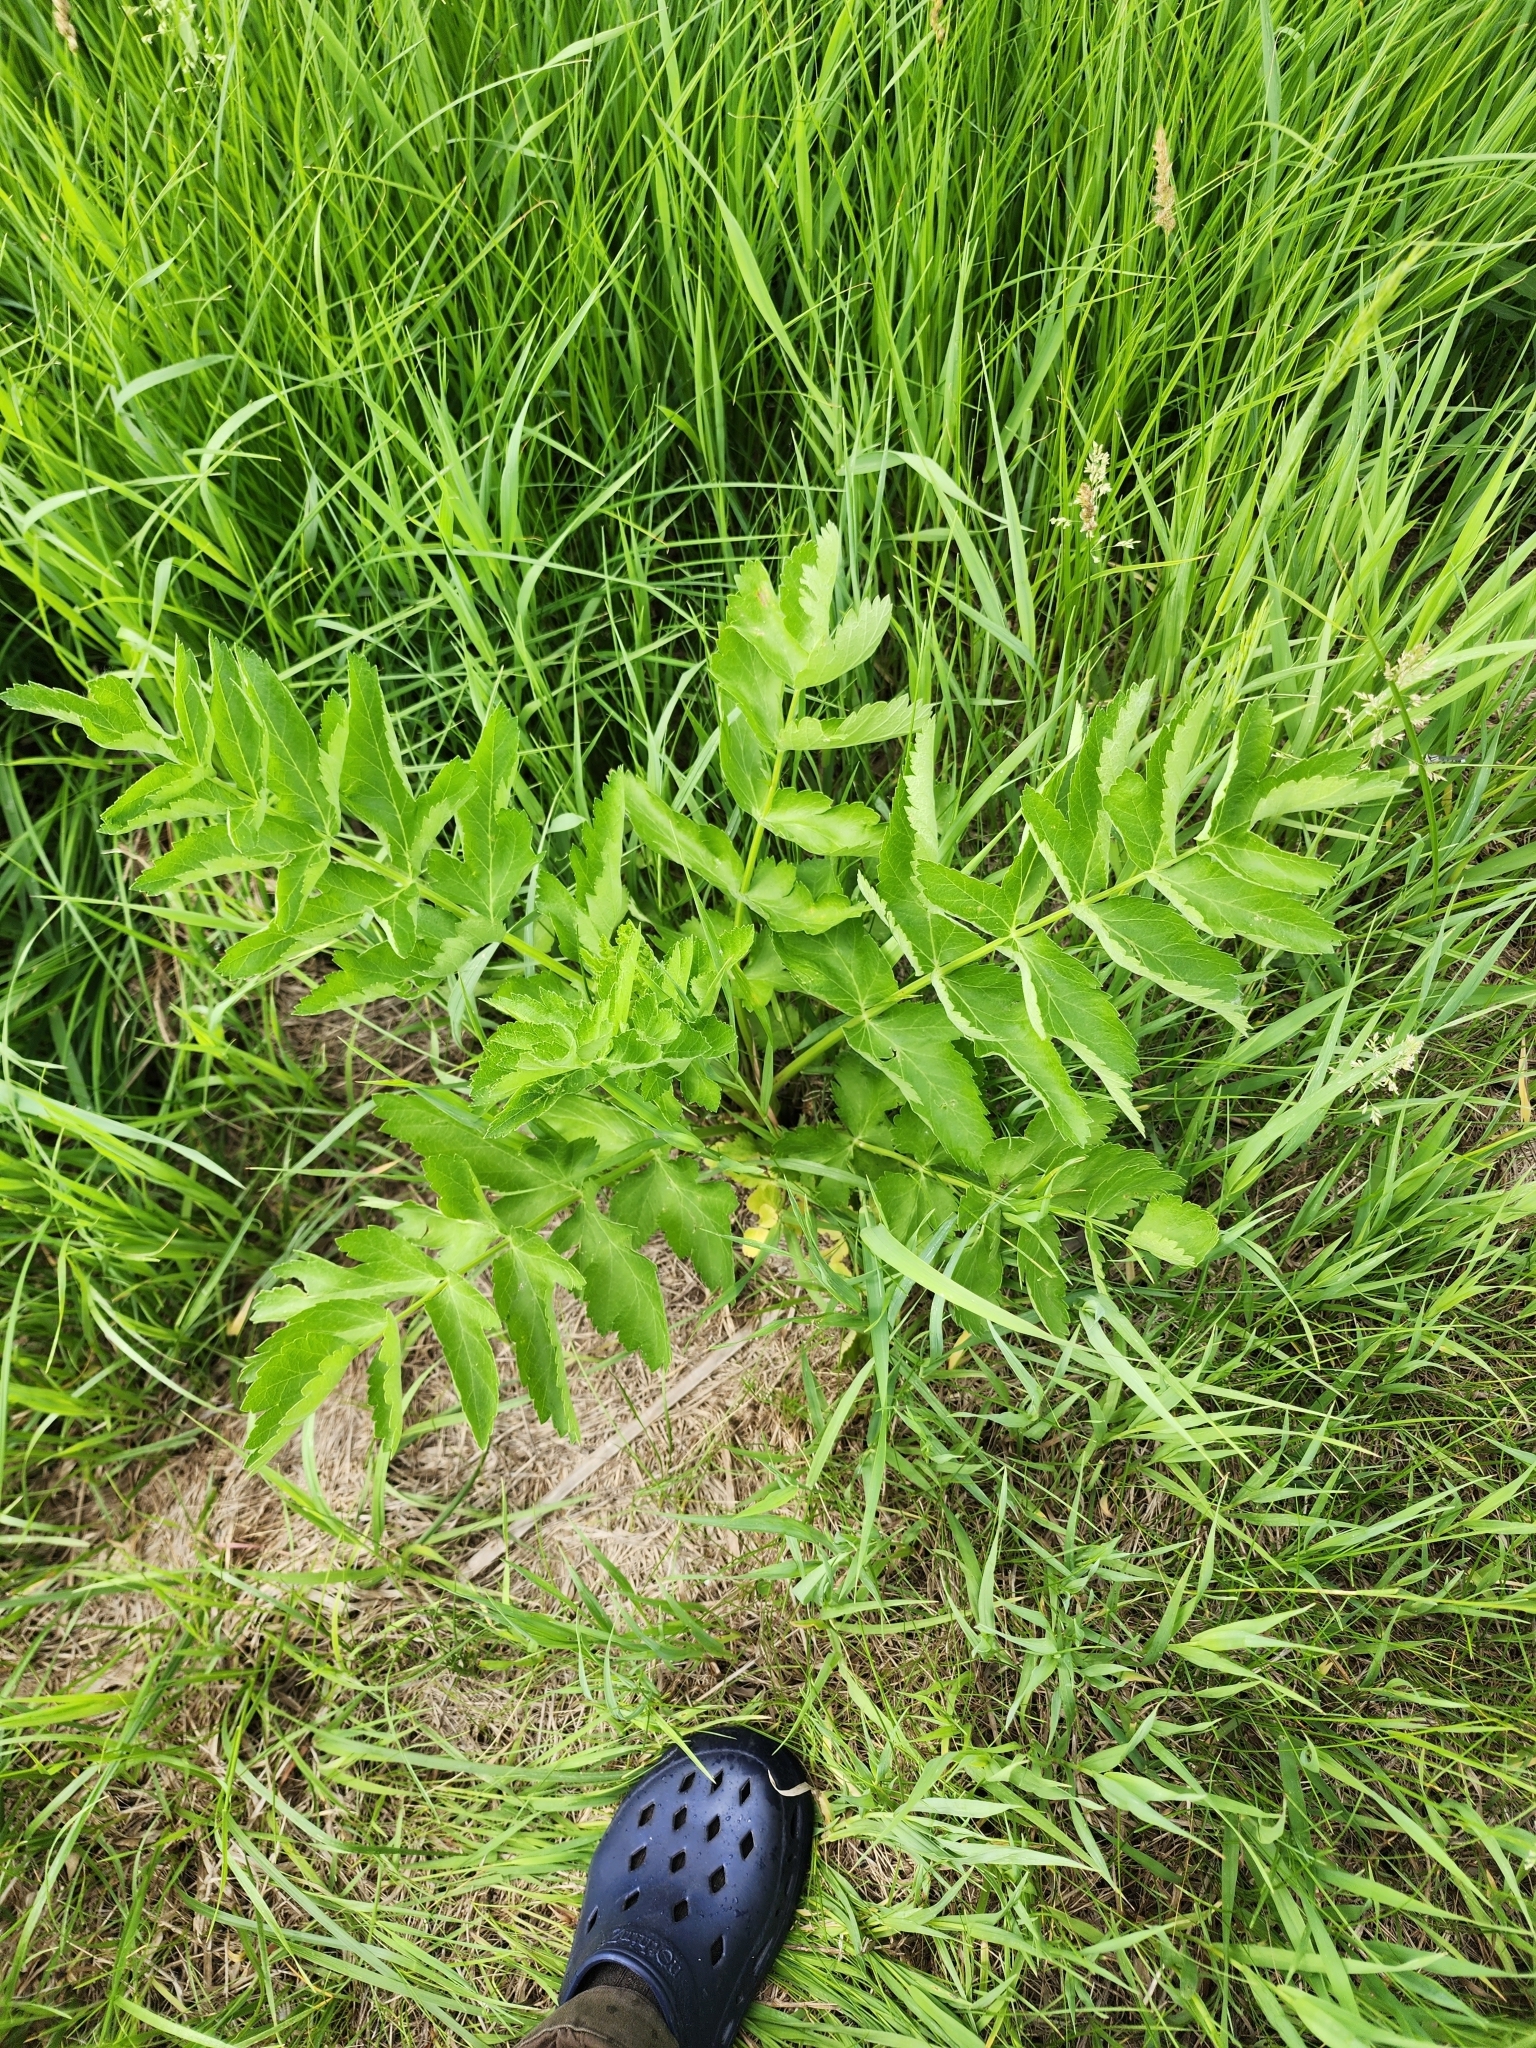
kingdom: Plantae
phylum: Tracheophyta
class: Magnoliopsida
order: Apiales
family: Apiaceae
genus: Pastinaca
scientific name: Pastinaca sativa
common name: Wild parsnip
